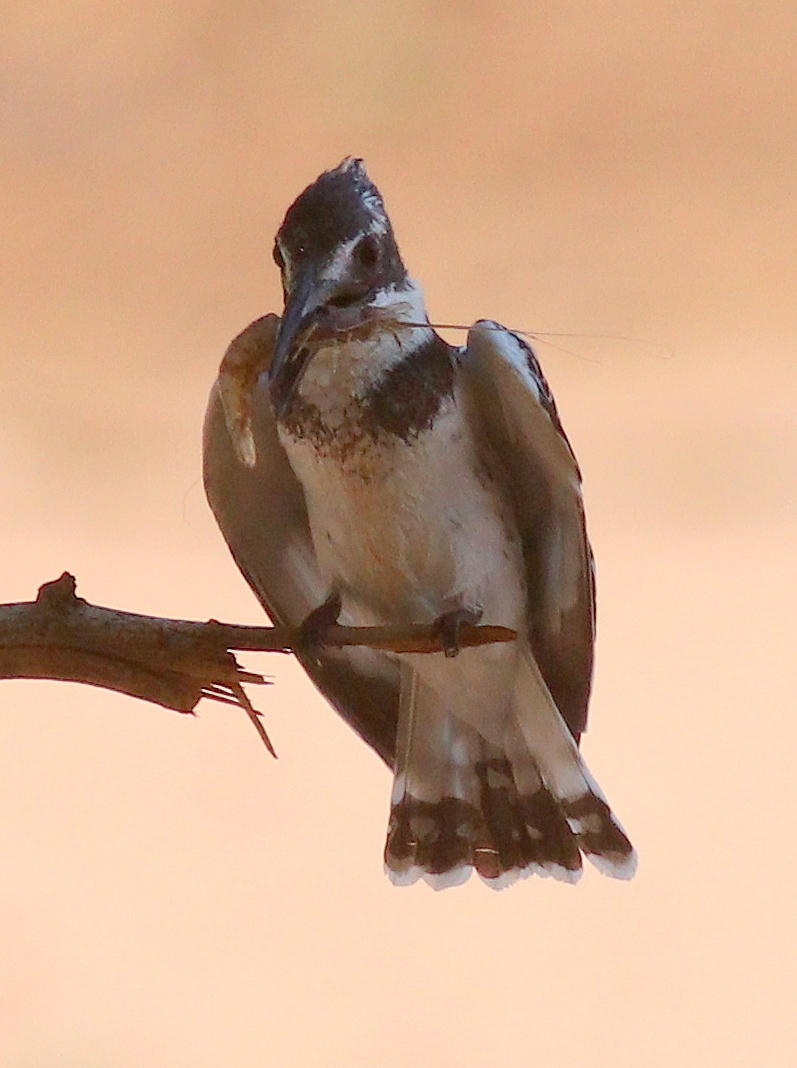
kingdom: Animalia
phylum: Chordata
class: Aves
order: Coraciiformes
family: Alcedinidae
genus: Ceryle
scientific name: Ceryle rudis
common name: Pied kingfisher
